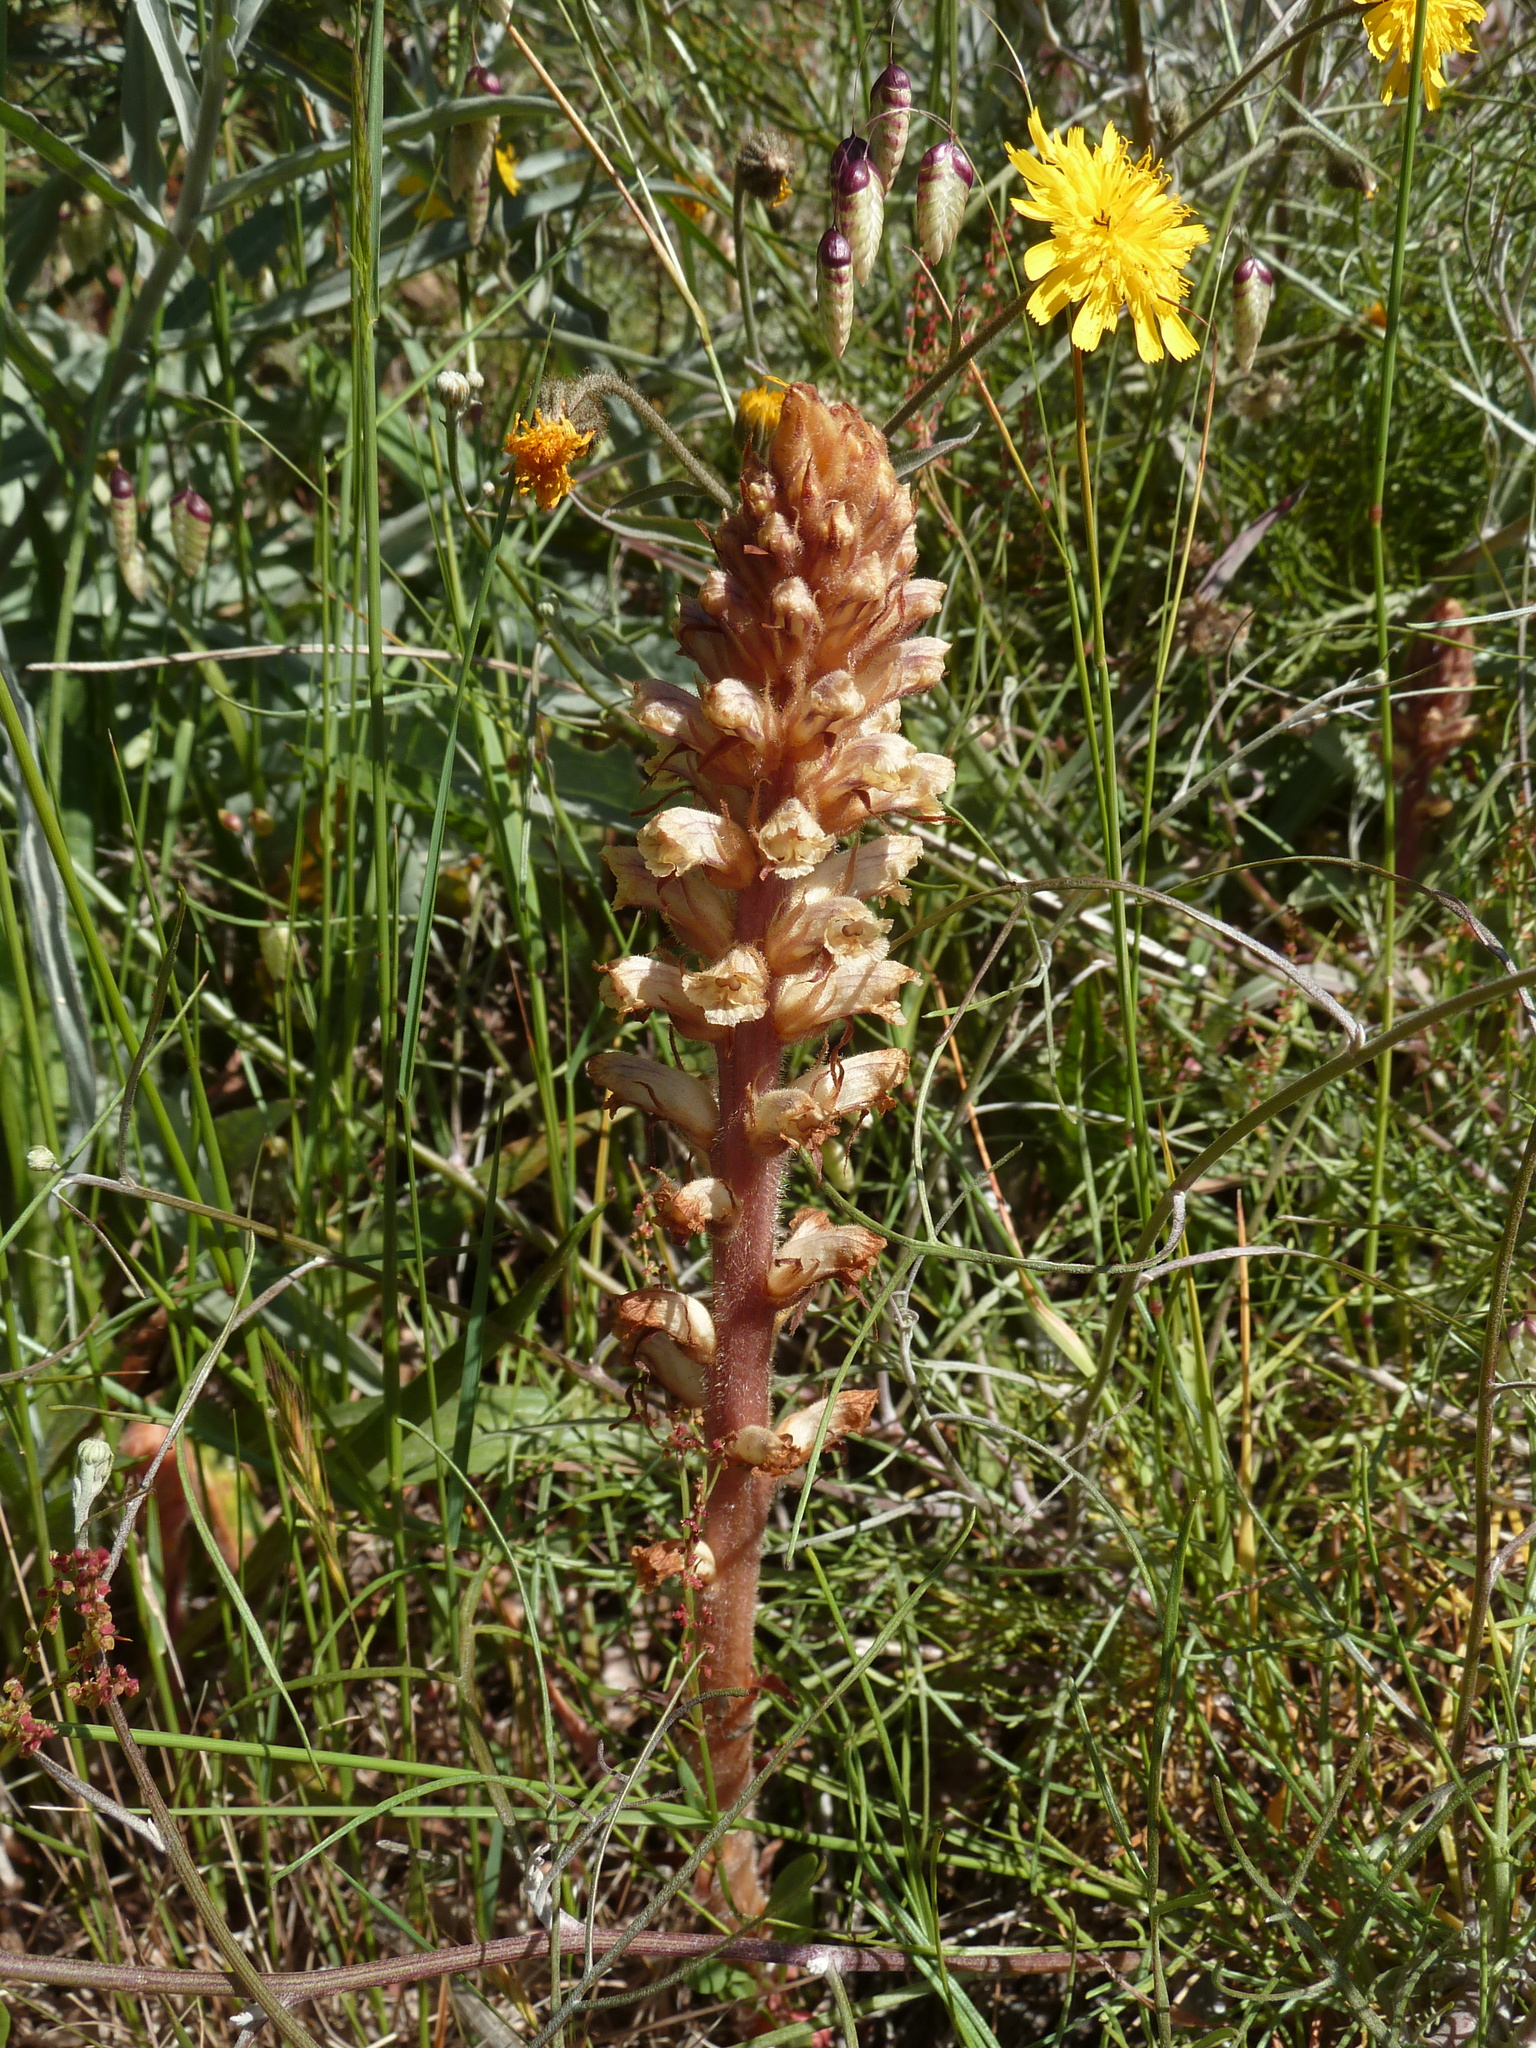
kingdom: Plantae
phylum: Tracheophyta
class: Magnoliopsida
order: Lamiales
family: Orobanchaceae
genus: Orobanche
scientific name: Orobanche minor
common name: Common broomrape
